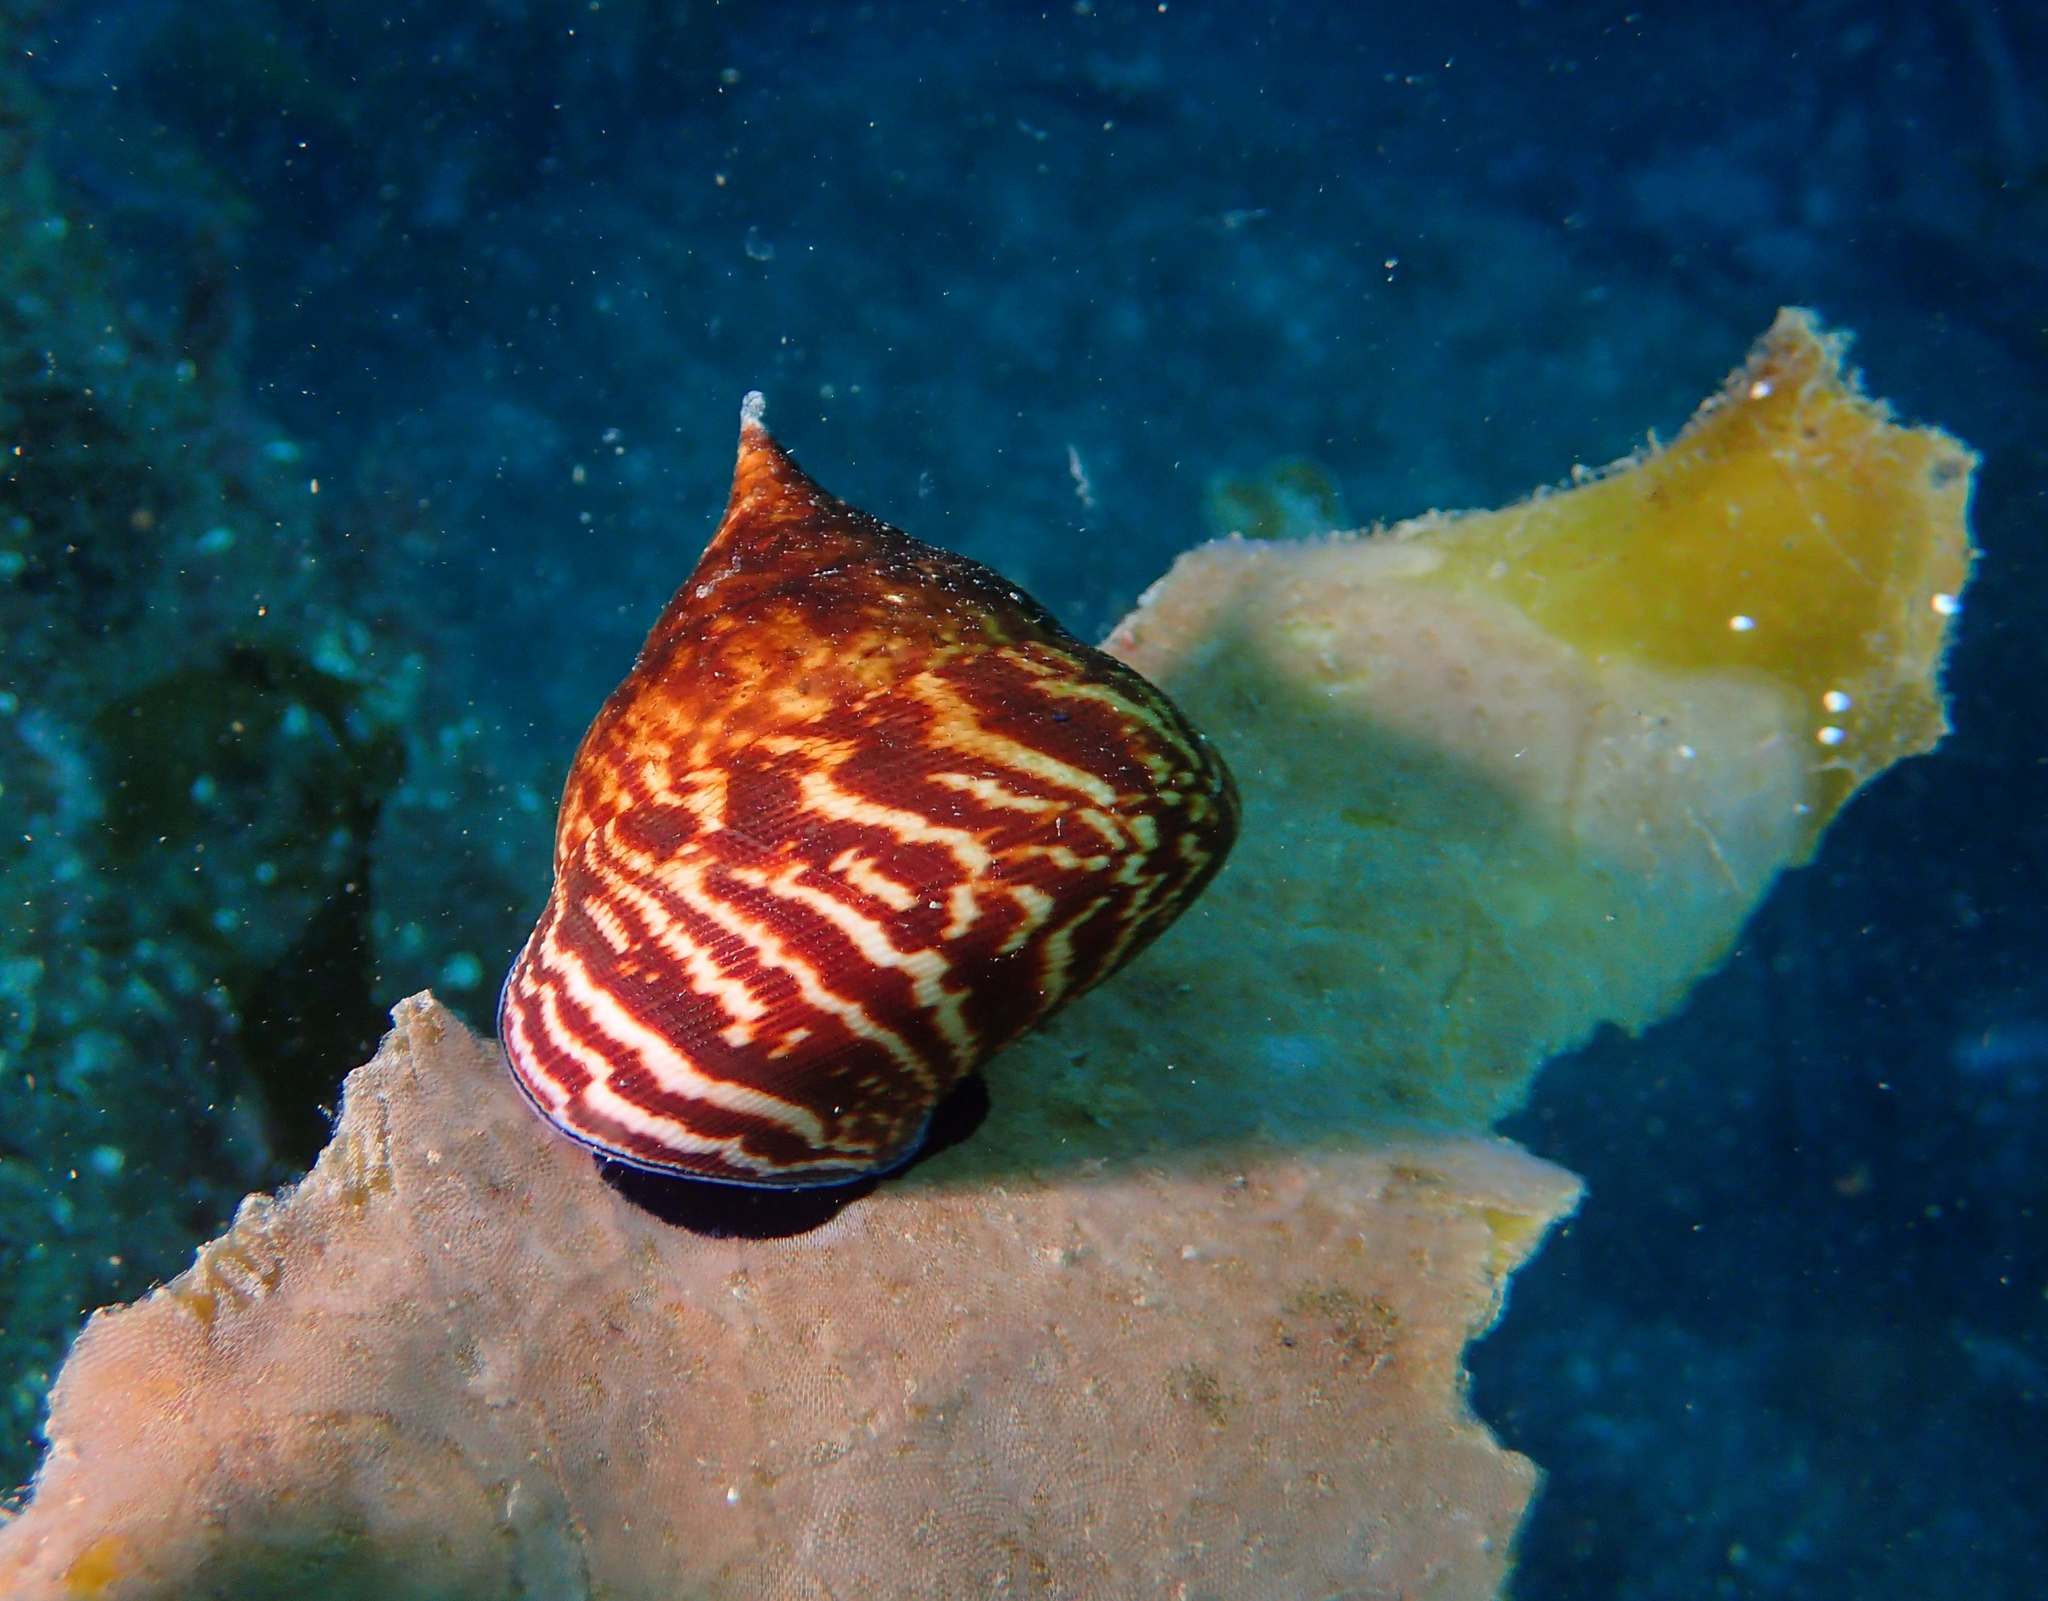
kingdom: Animalia
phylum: Mollusca
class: Gastropoda
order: Trochida
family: Calliostomatidae
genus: Maurea
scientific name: Maurea tigris
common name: Tiger maurea
